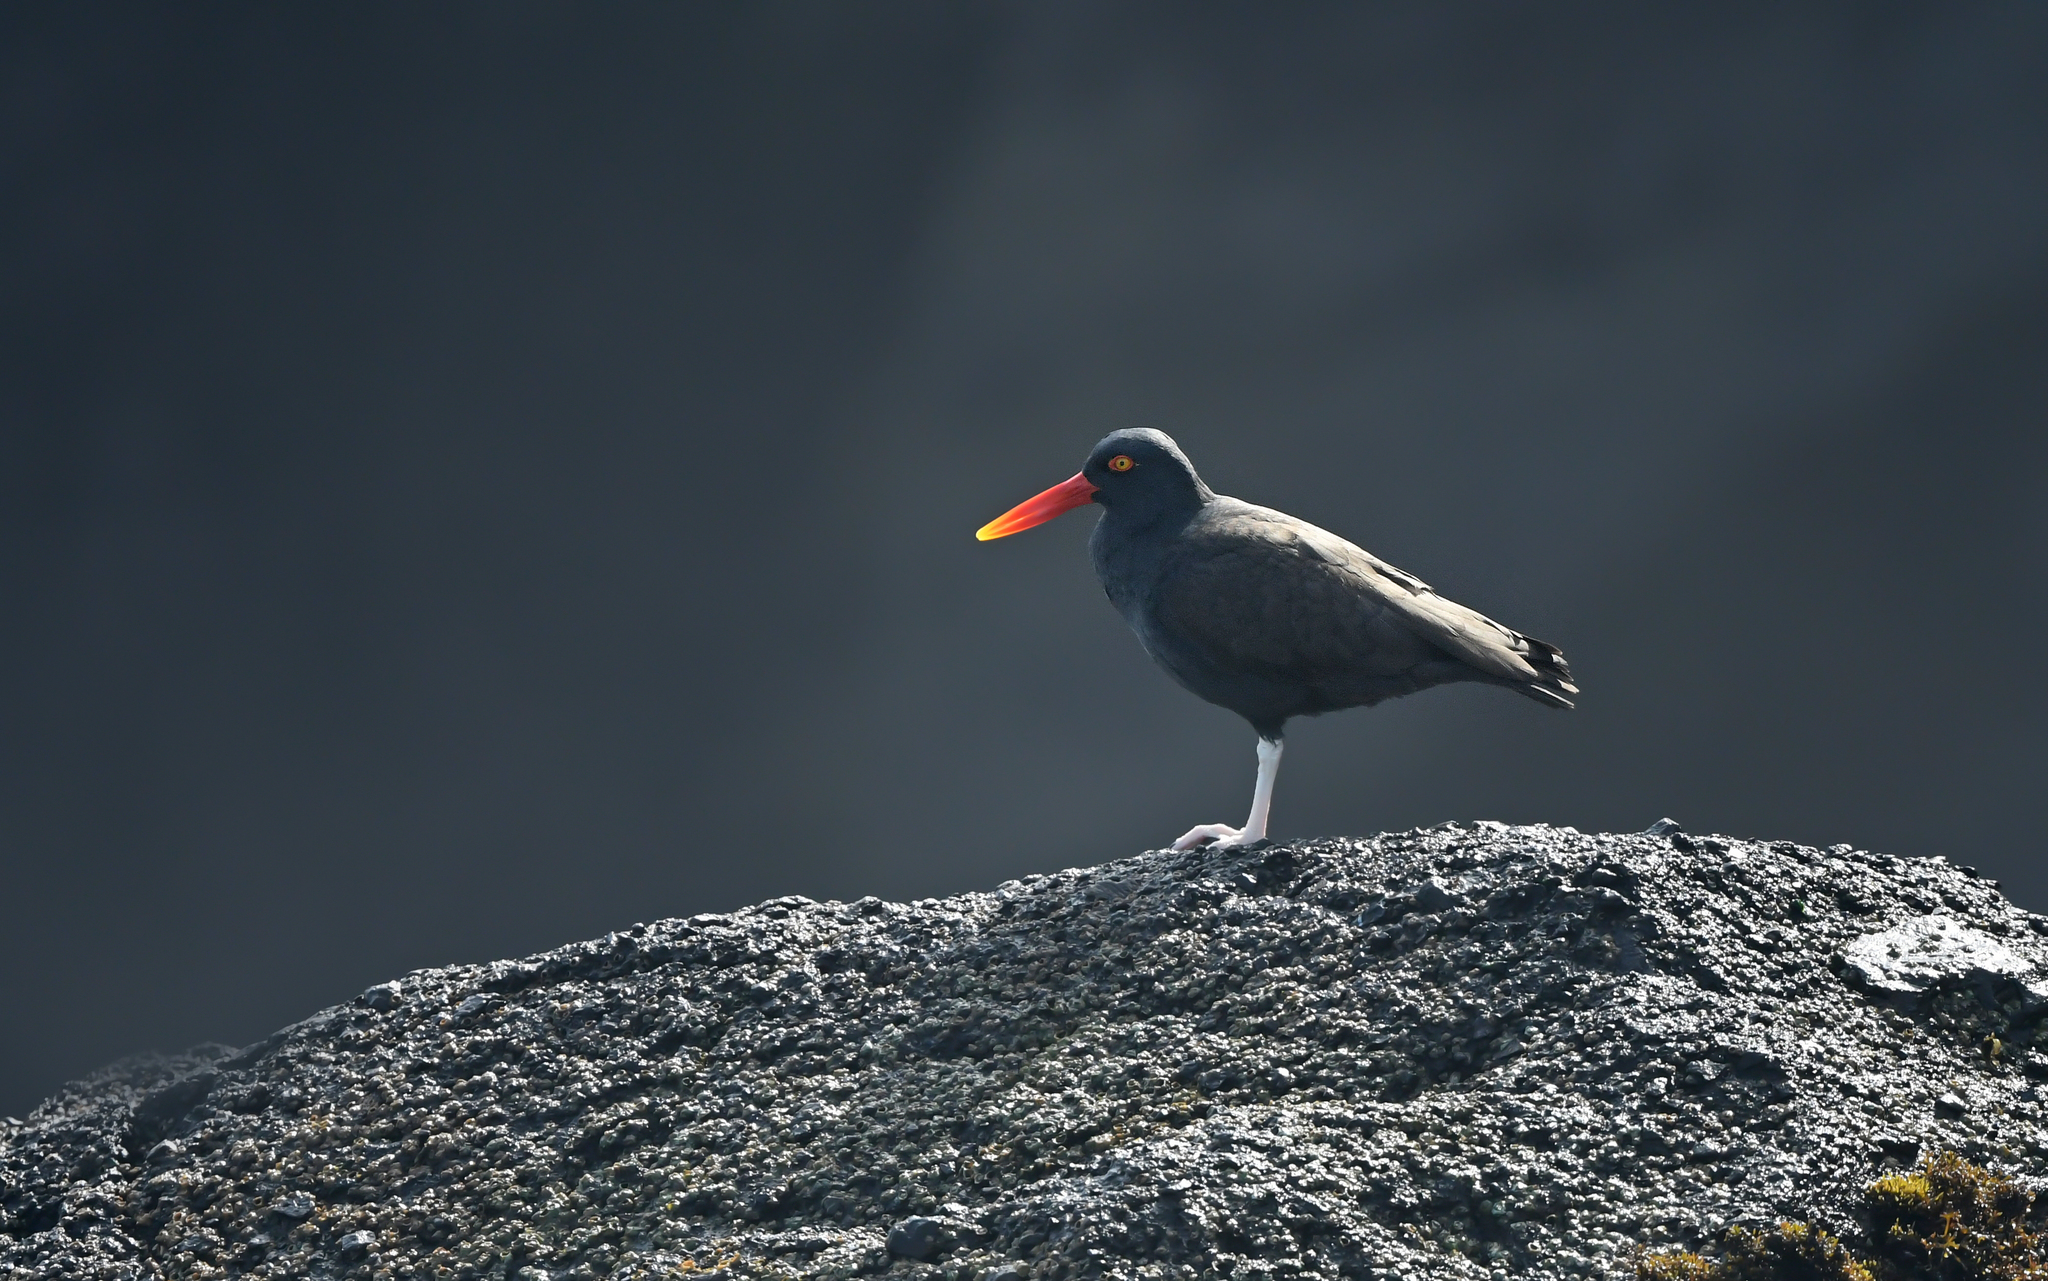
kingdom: Animalia
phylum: Chordata
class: Aves
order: Charadriiformes
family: Haematopodidae
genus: Haematopus
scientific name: Haematopus ater
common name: Blackish oystercatcher
